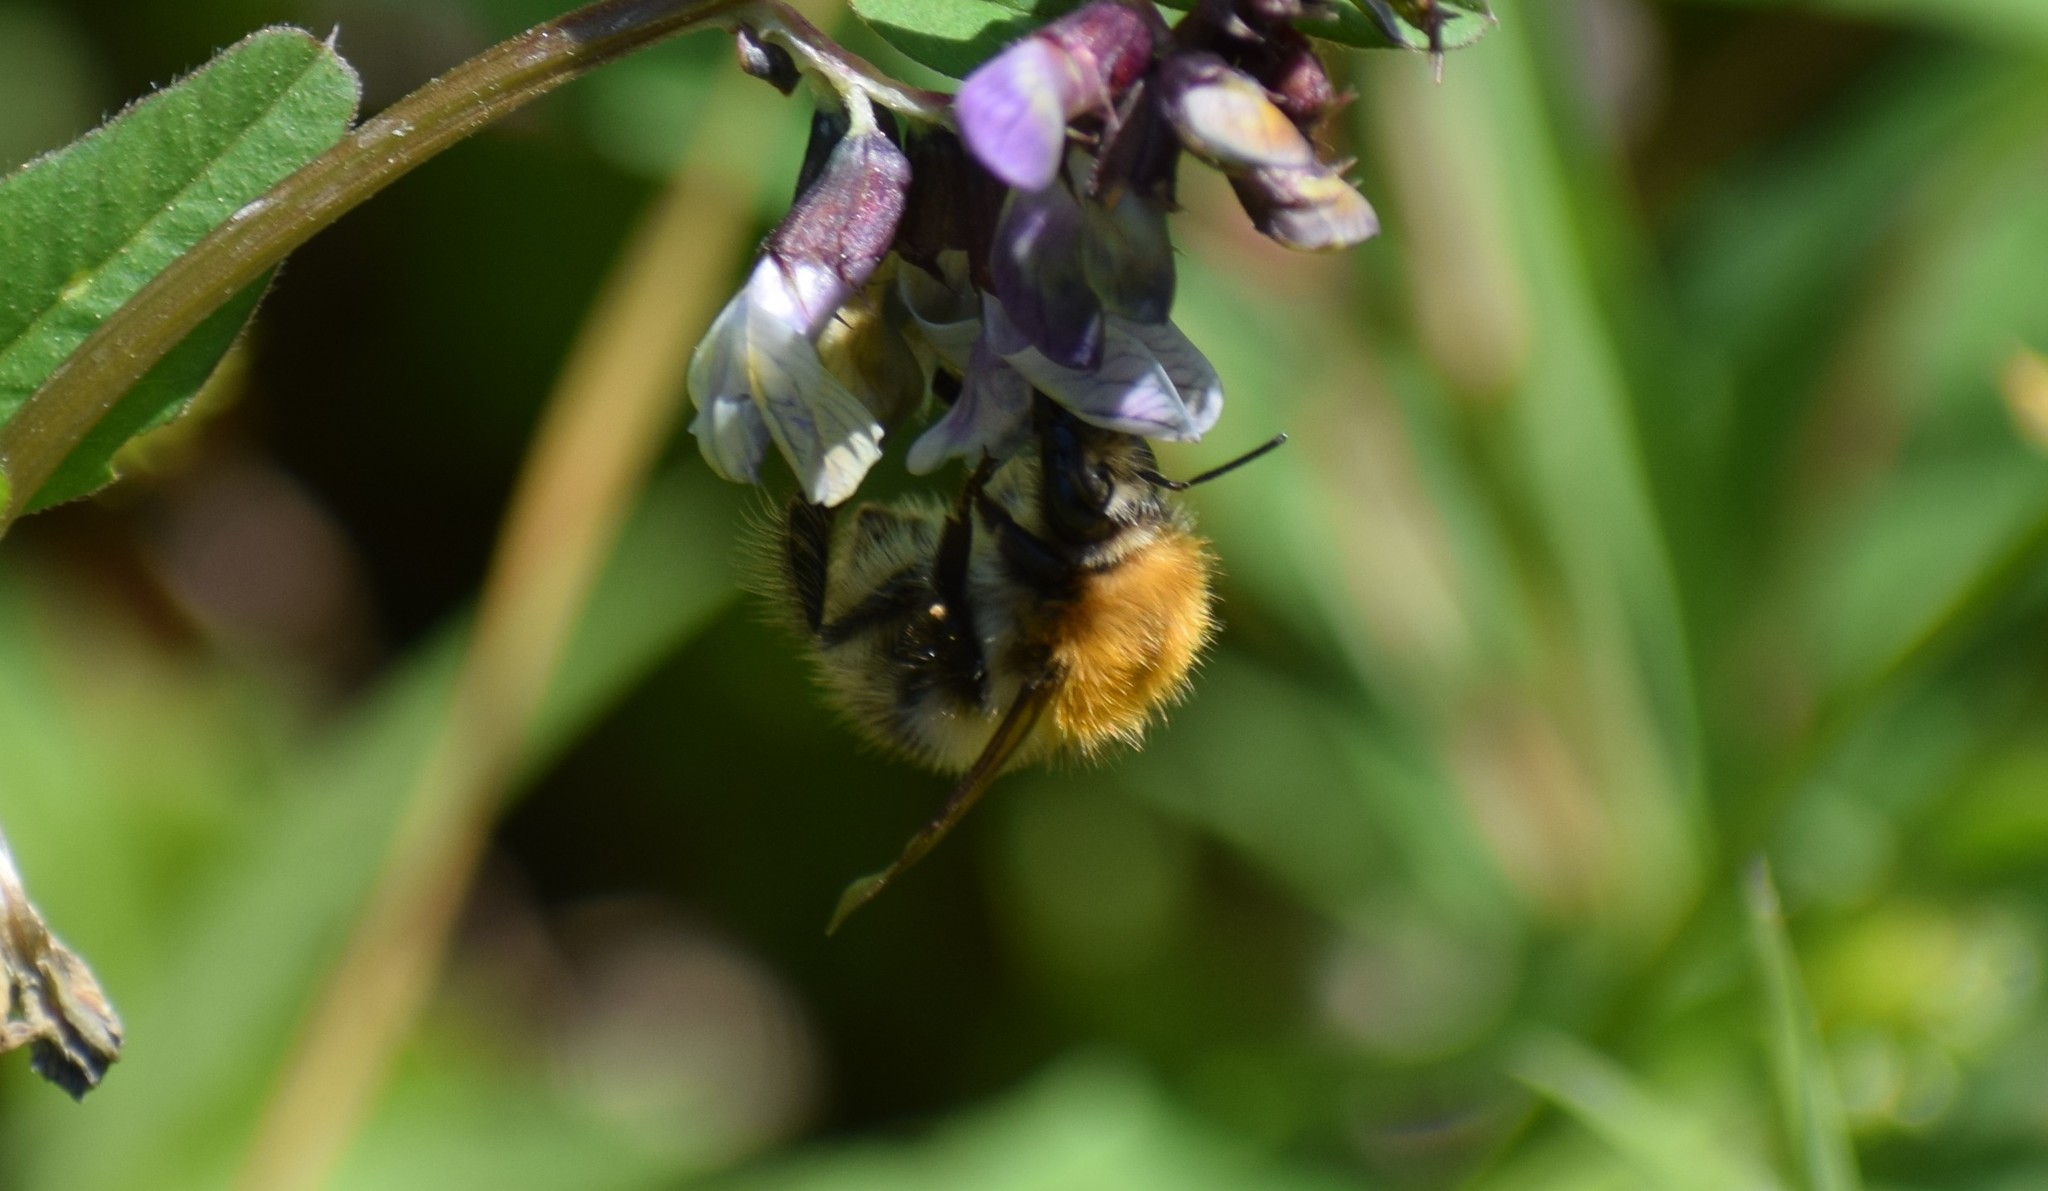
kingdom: Animalia
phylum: Arthropoda
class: Insecta
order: Hymenoptera
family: Apidae
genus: Bombus
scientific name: Bombus pascuorum
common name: Common carder bee
